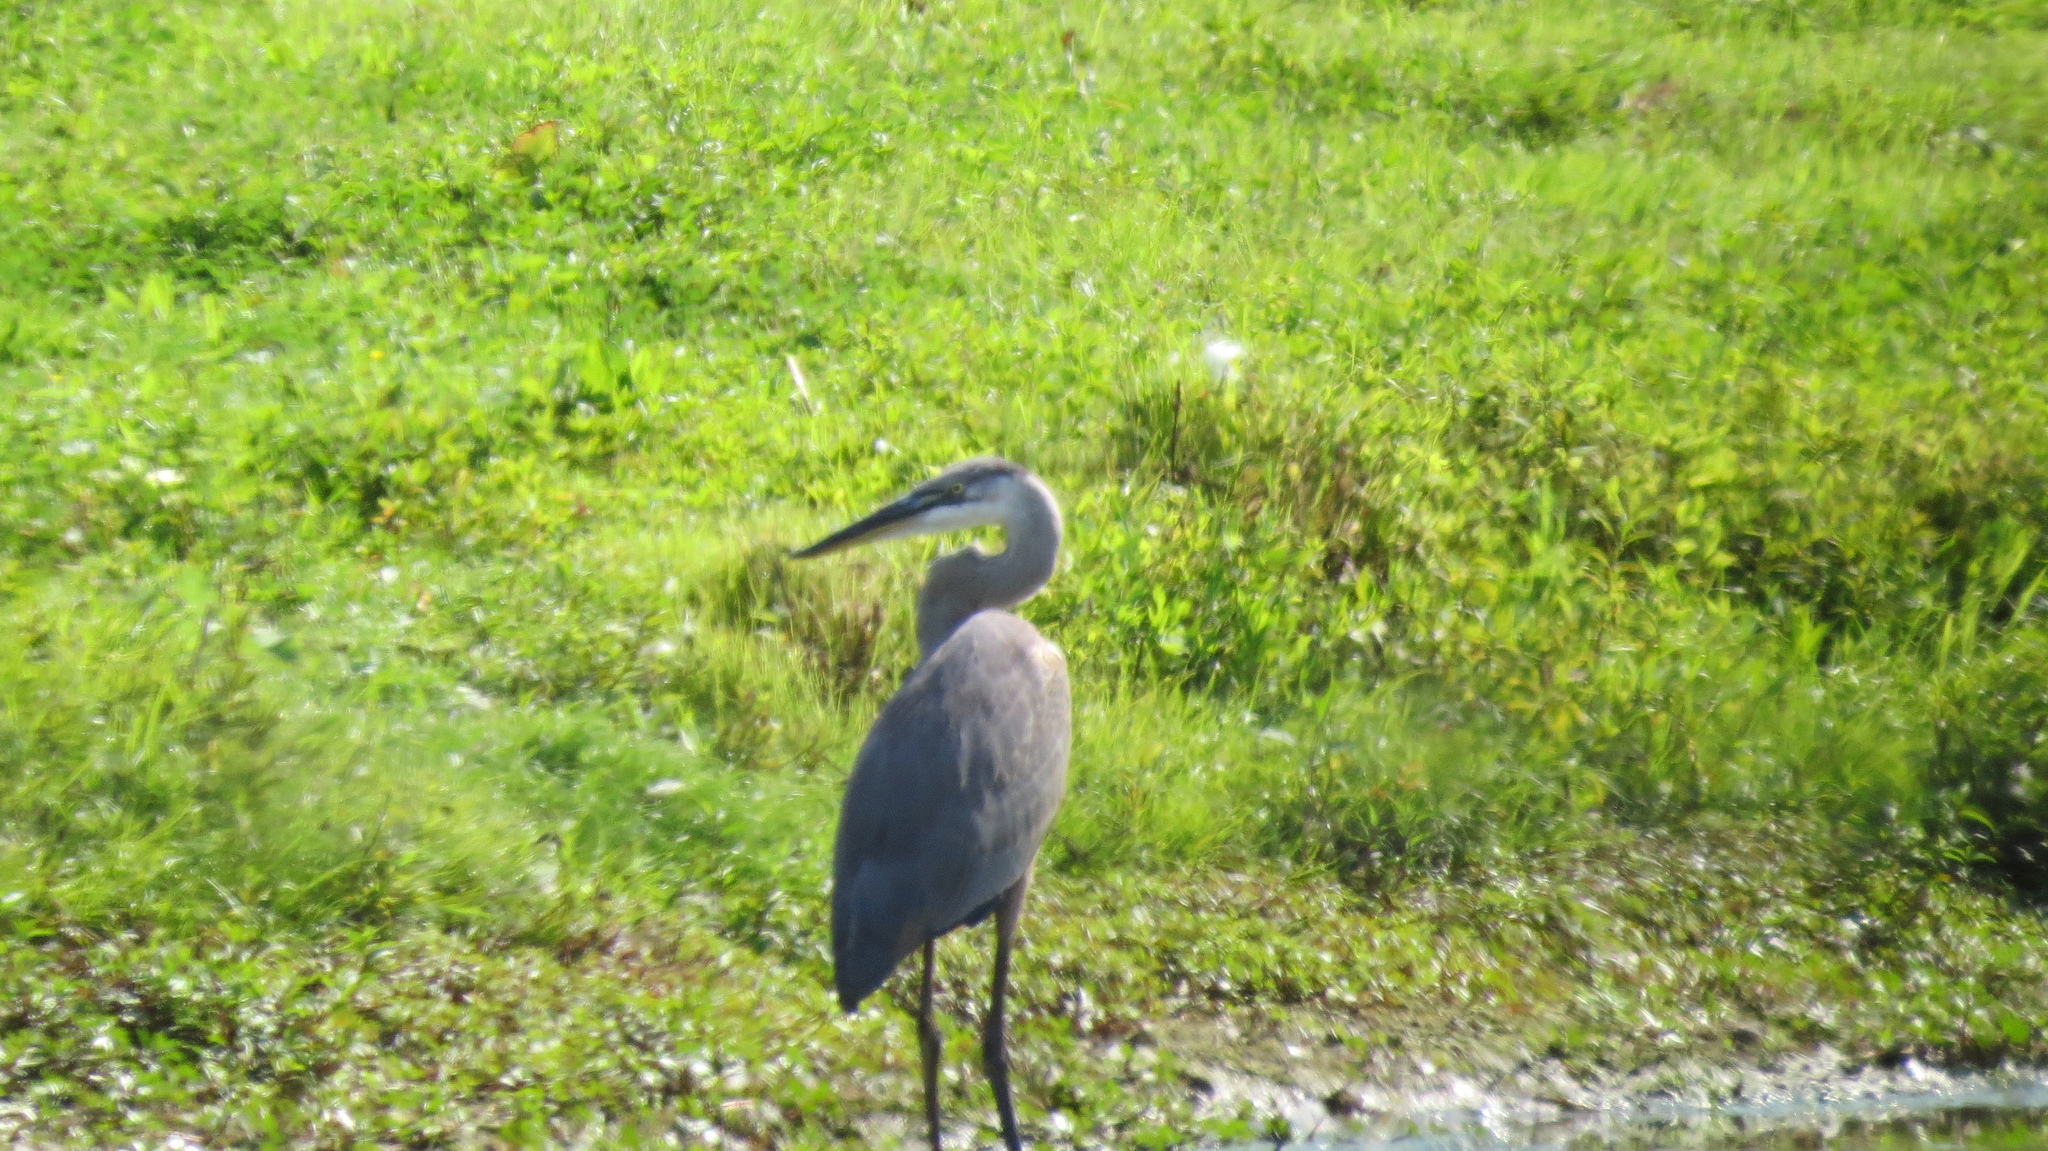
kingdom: Animalia
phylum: Chordata
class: Aves
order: Pelecaniformes
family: Ardeidae
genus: Ardea
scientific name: Ardea herodias
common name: Great blue heron
